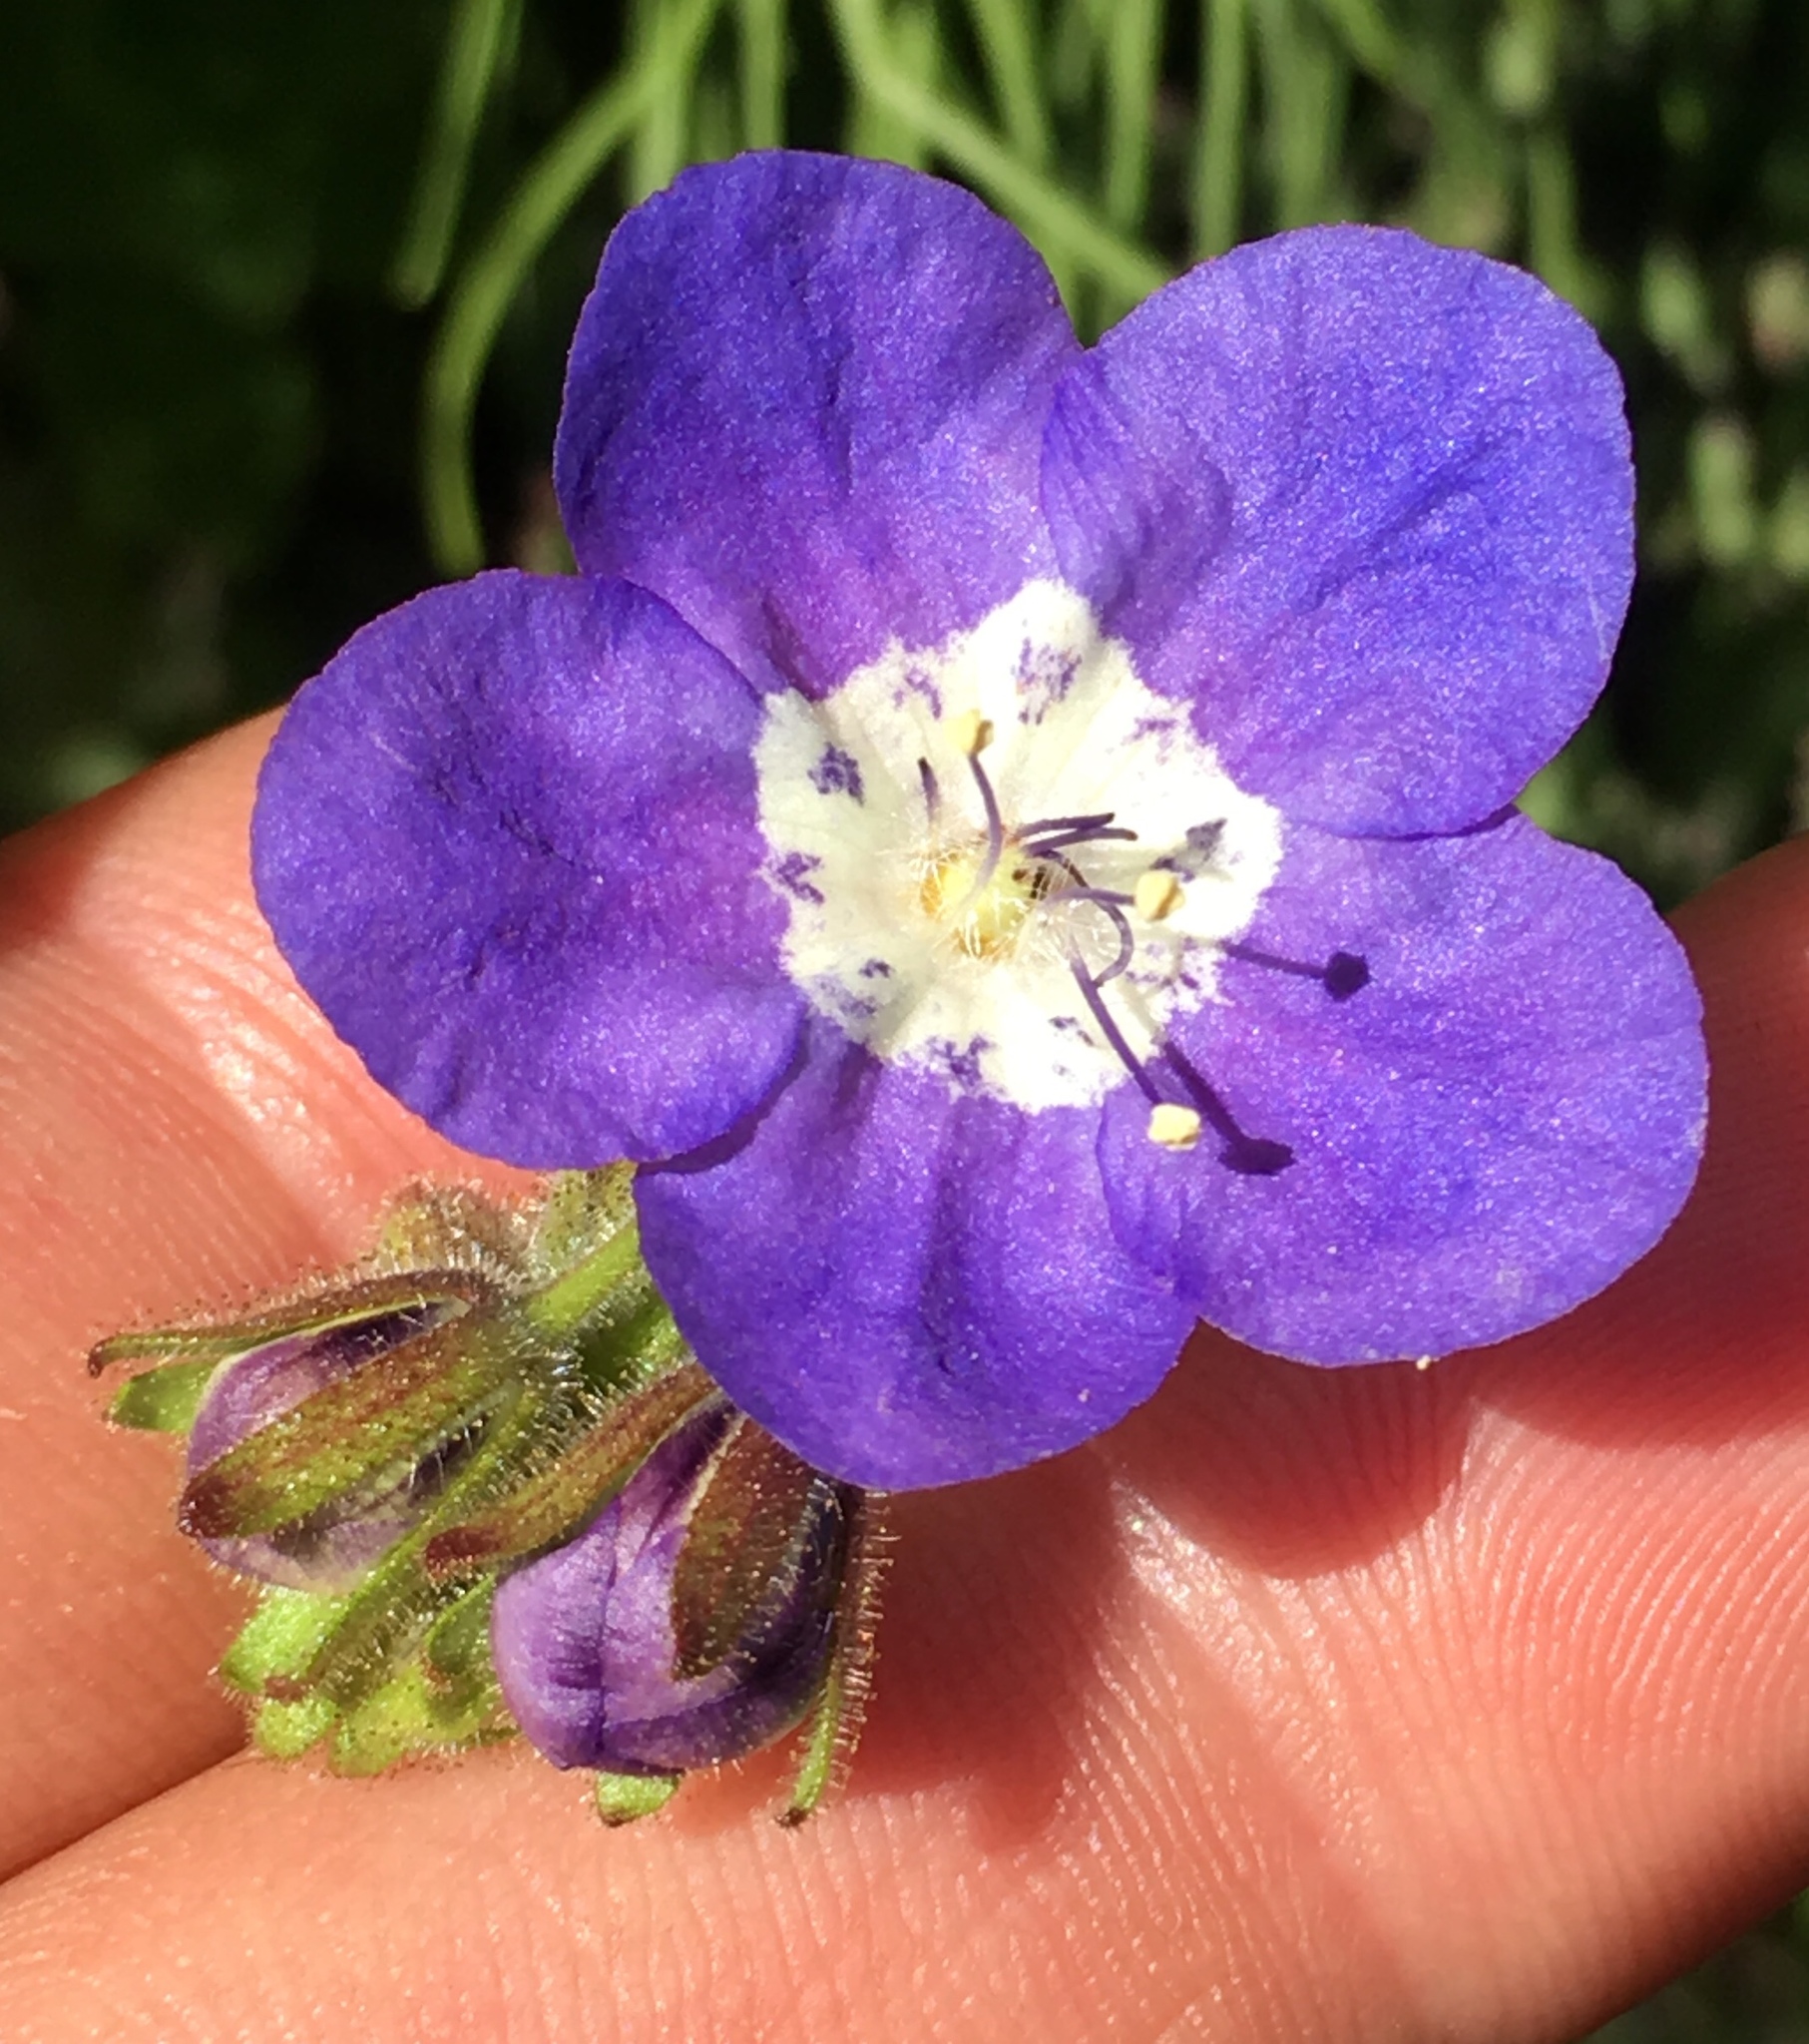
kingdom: Plantae
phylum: Tracheophyta
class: Magnoliopsida
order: Boraginales
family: Hydrophyllaceae
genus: Phacelia
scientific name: Phacelia viscida
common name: Sticky phacelia
